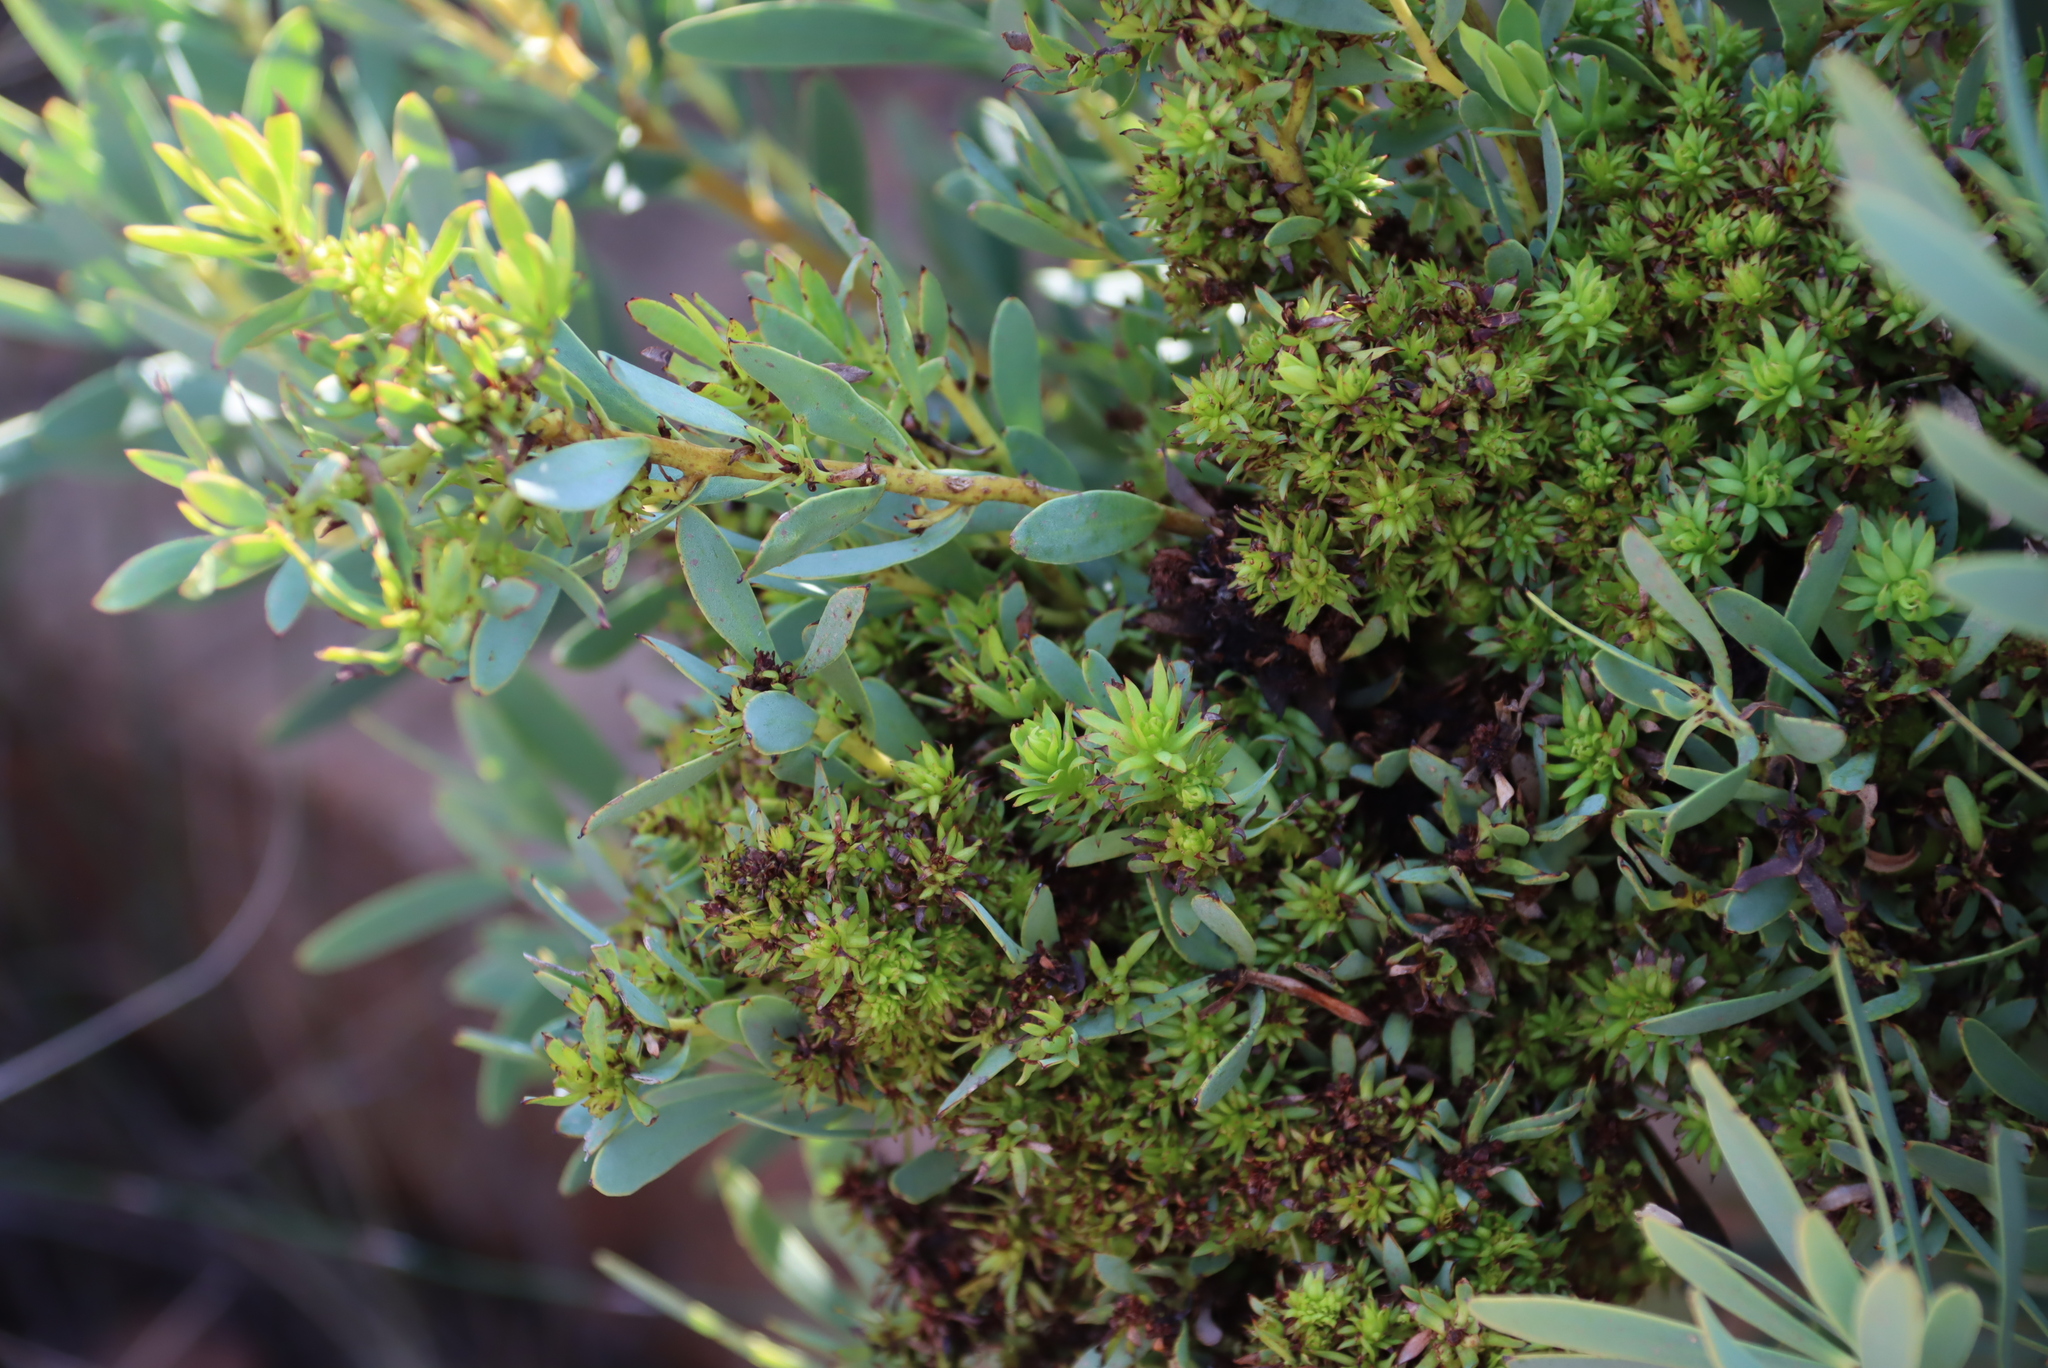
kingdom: Bacteria
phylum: Firmicutes
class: Bacilli
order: Acholeplasmatales
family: Acholeplasmataceae
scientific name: Acholeplasmataceae
